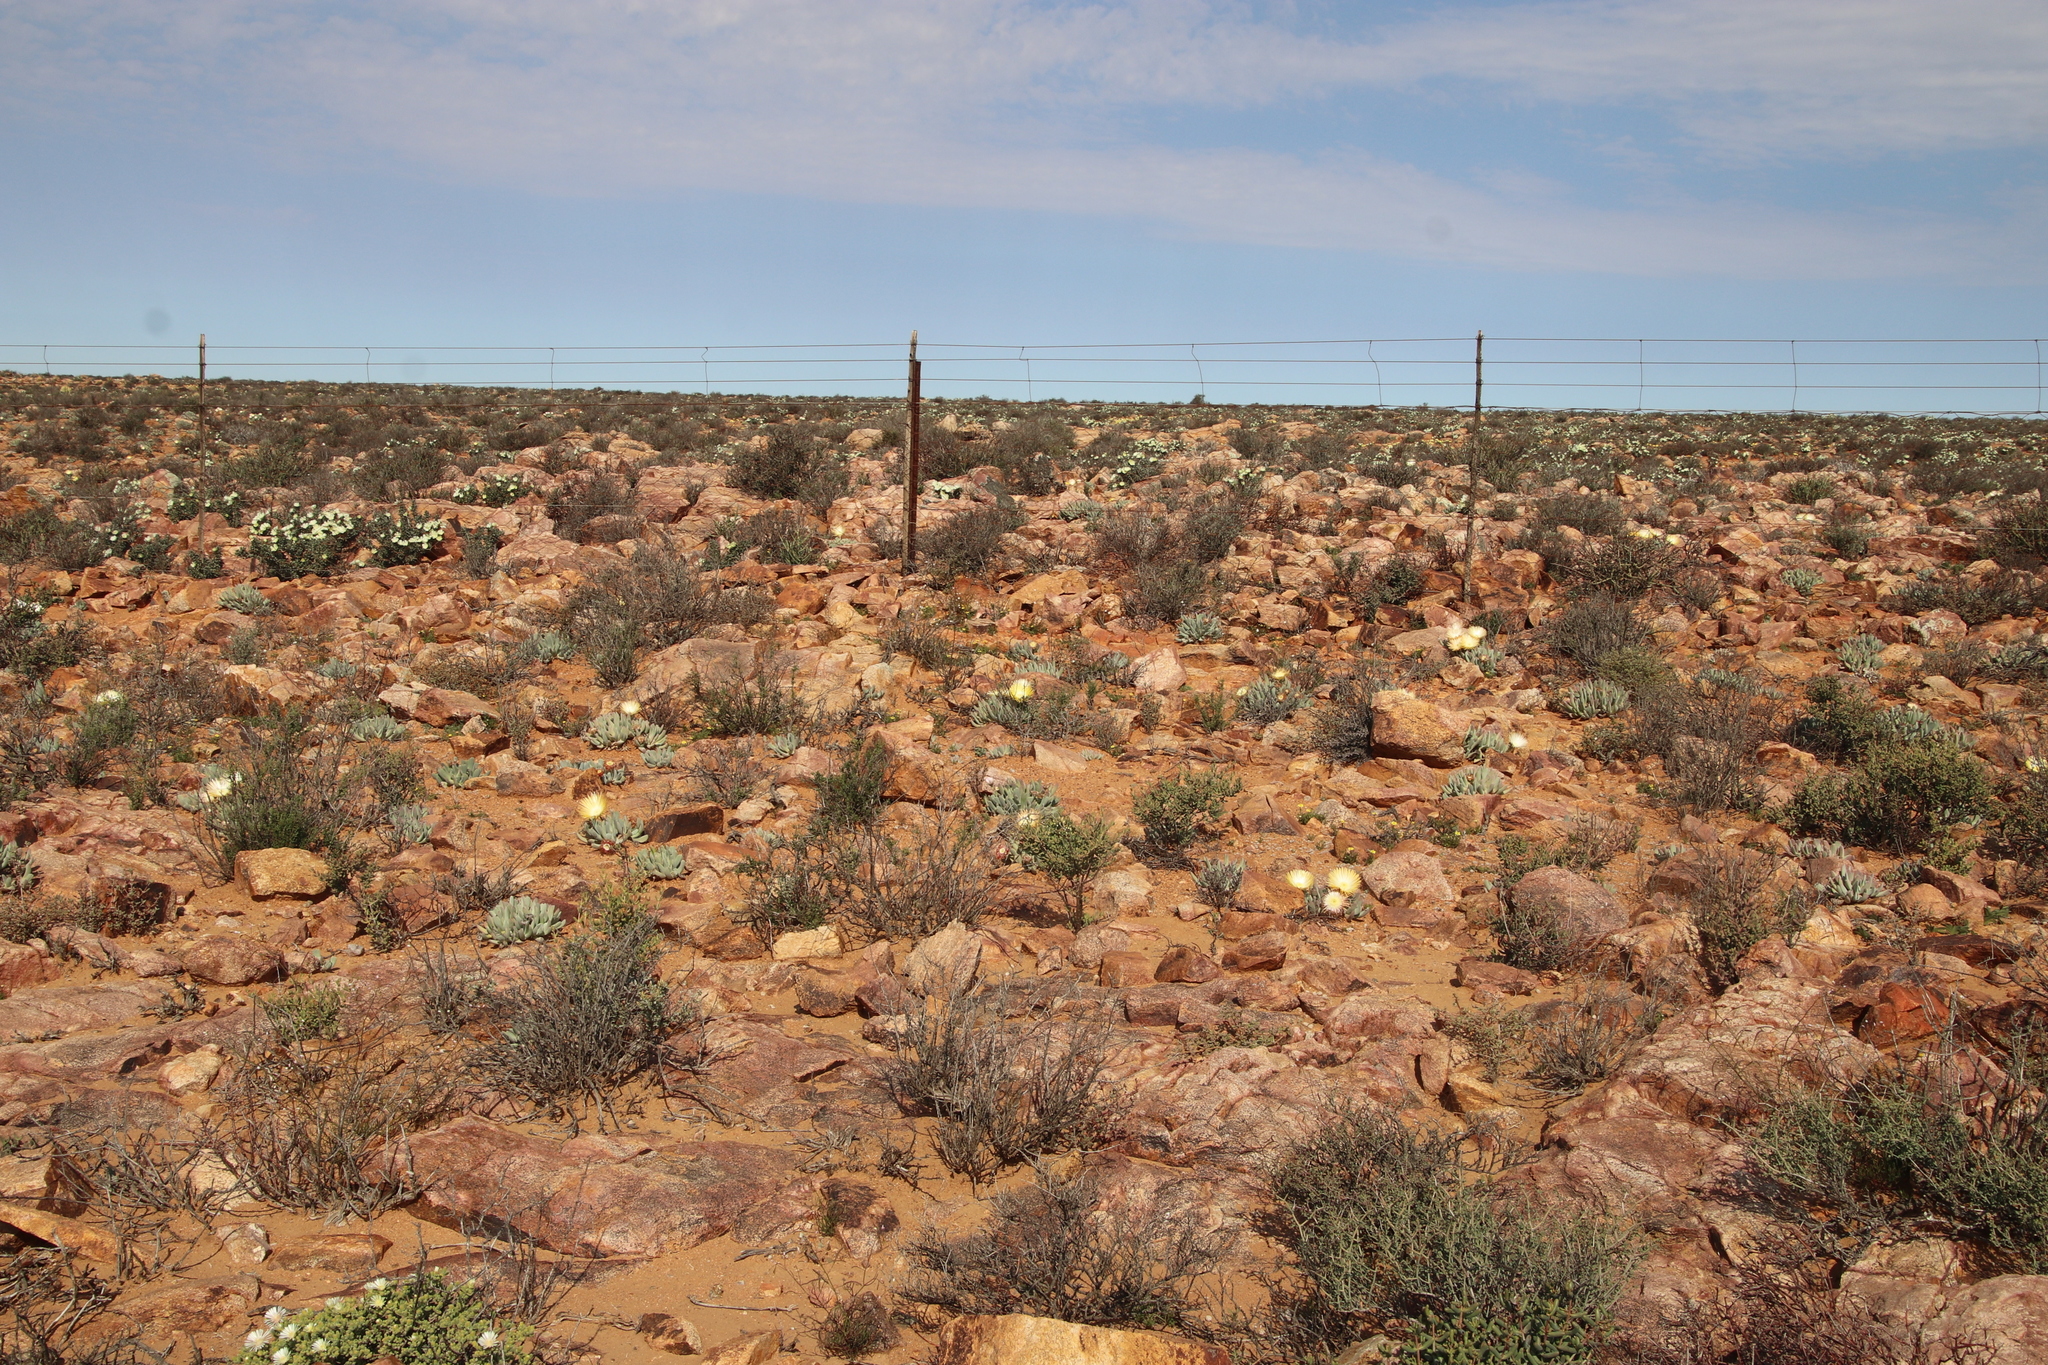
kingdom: Plantae
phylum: Tracheophyta
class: Magnoliopsida
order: Caryophyllales
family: Aizoaceae
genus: Cheiridopsis
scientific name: Cheiridopsis denticulata
